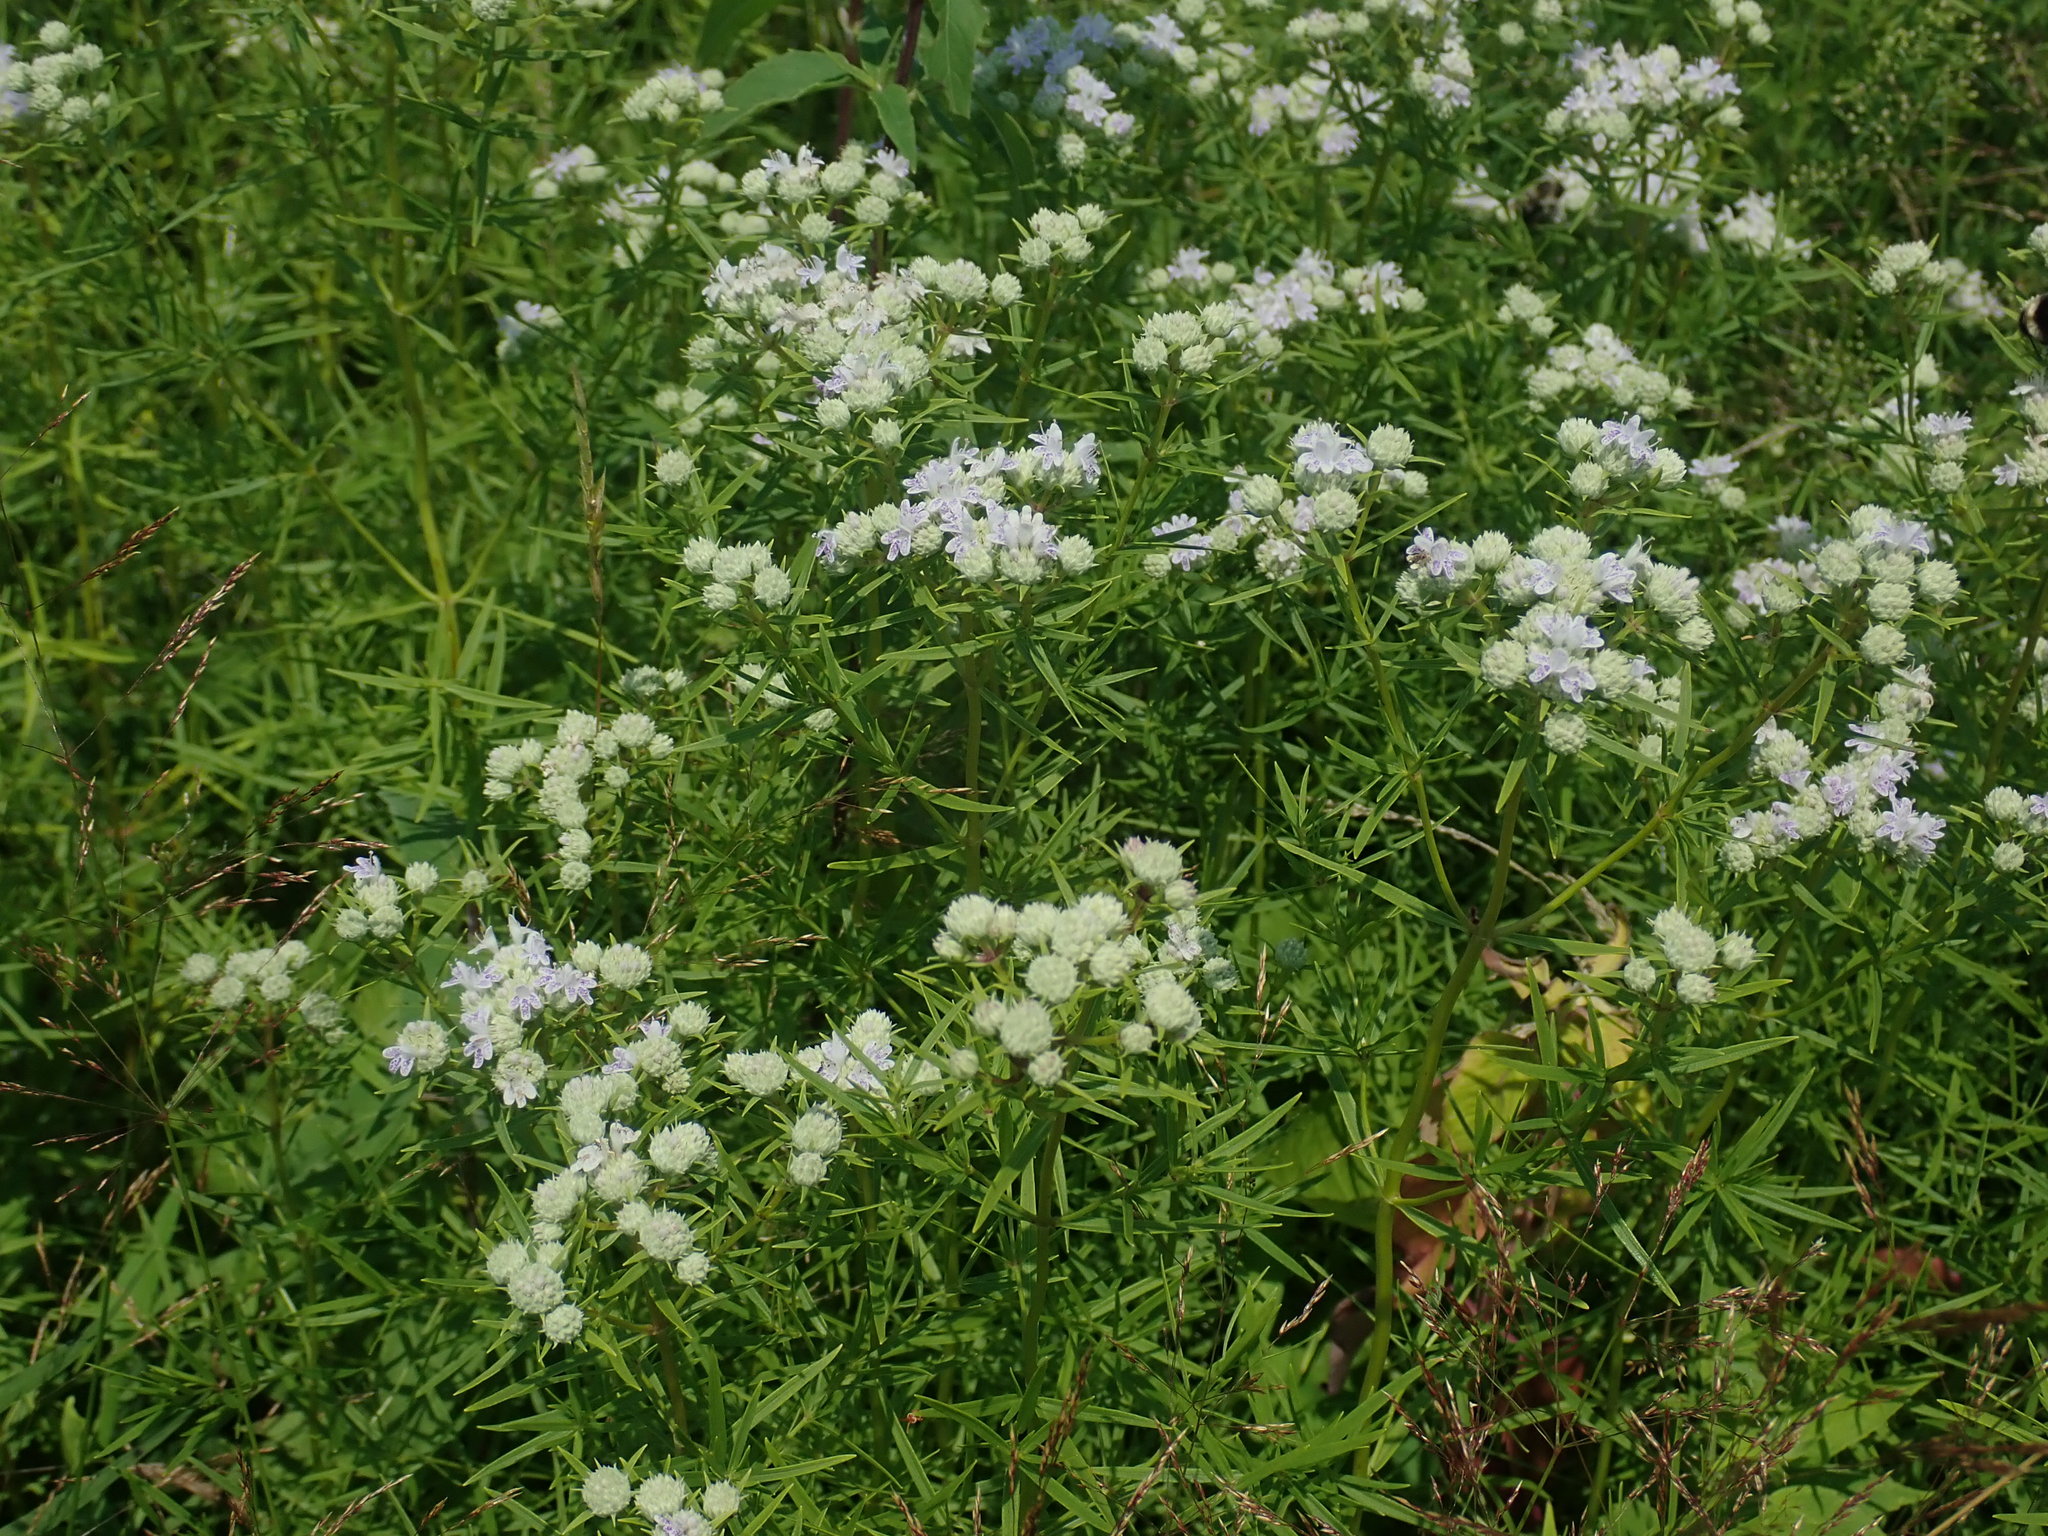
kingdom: Plantae
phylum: Tracheophyta
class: Magnoliopsida
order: Lamiales
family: Lamiaceae
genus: Pycnanthemum
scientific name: Pycnanthemum tenuifolium
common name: Narrow-leaf mountain-mint
